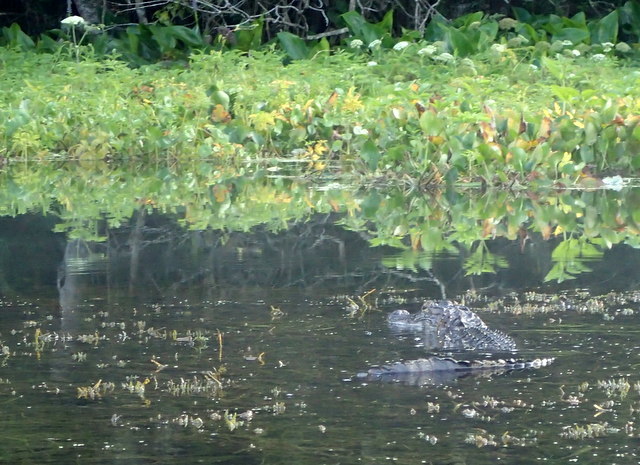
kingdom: Animalia
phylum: Chordata
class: Crocodylia
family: Alligatoridae
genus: Alligator
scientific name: Alligator mississippiensis
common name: American alligator
